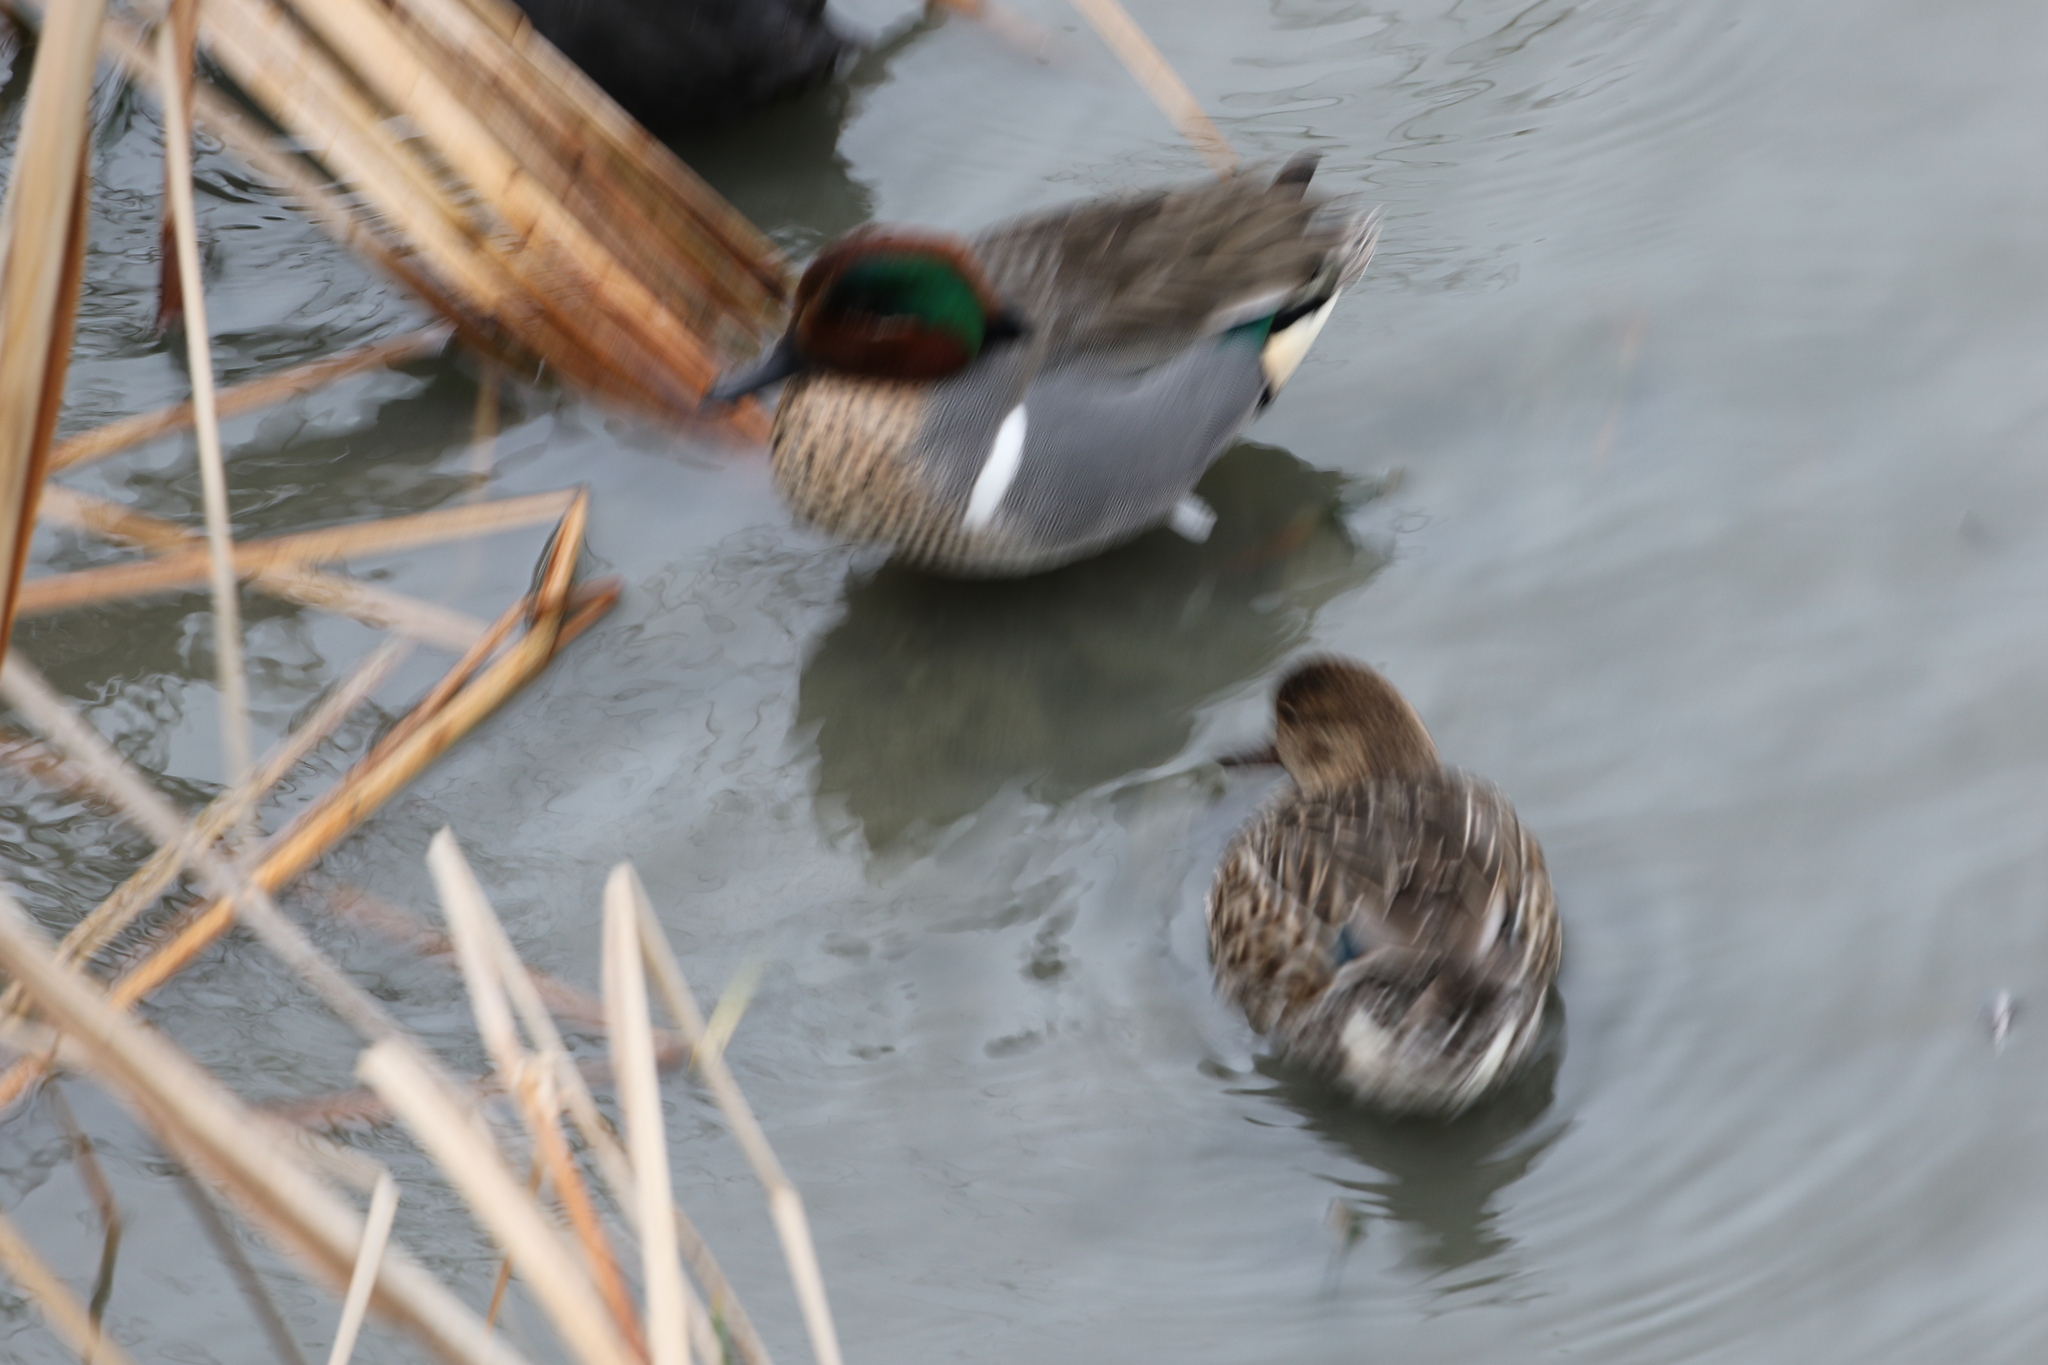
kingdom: Animalia
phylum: Chordata
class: Aves
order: Anseriformes
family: Anatidae
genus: Anas
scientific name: Anas crecca
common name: Eurasian teal
